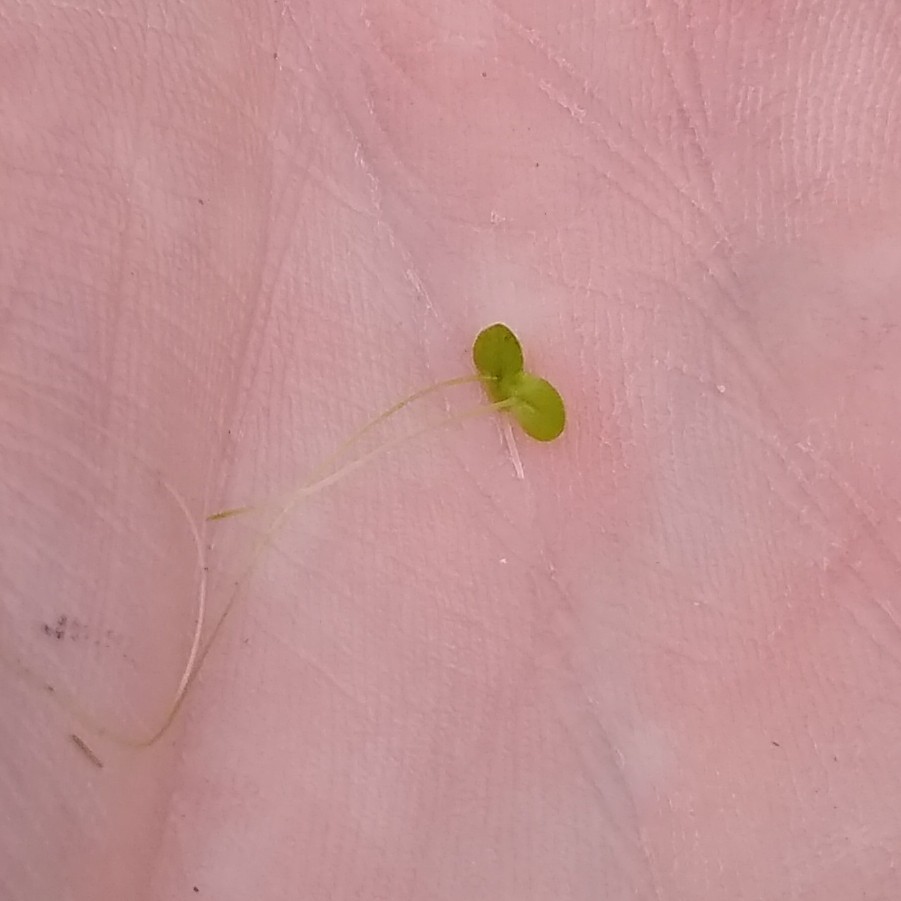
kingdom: Plantae
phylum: Tracheophyta
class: Liliopsida
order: Alismatales
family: Araceae
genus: Lemna
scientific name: Lemna minor
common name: Common duckweed
